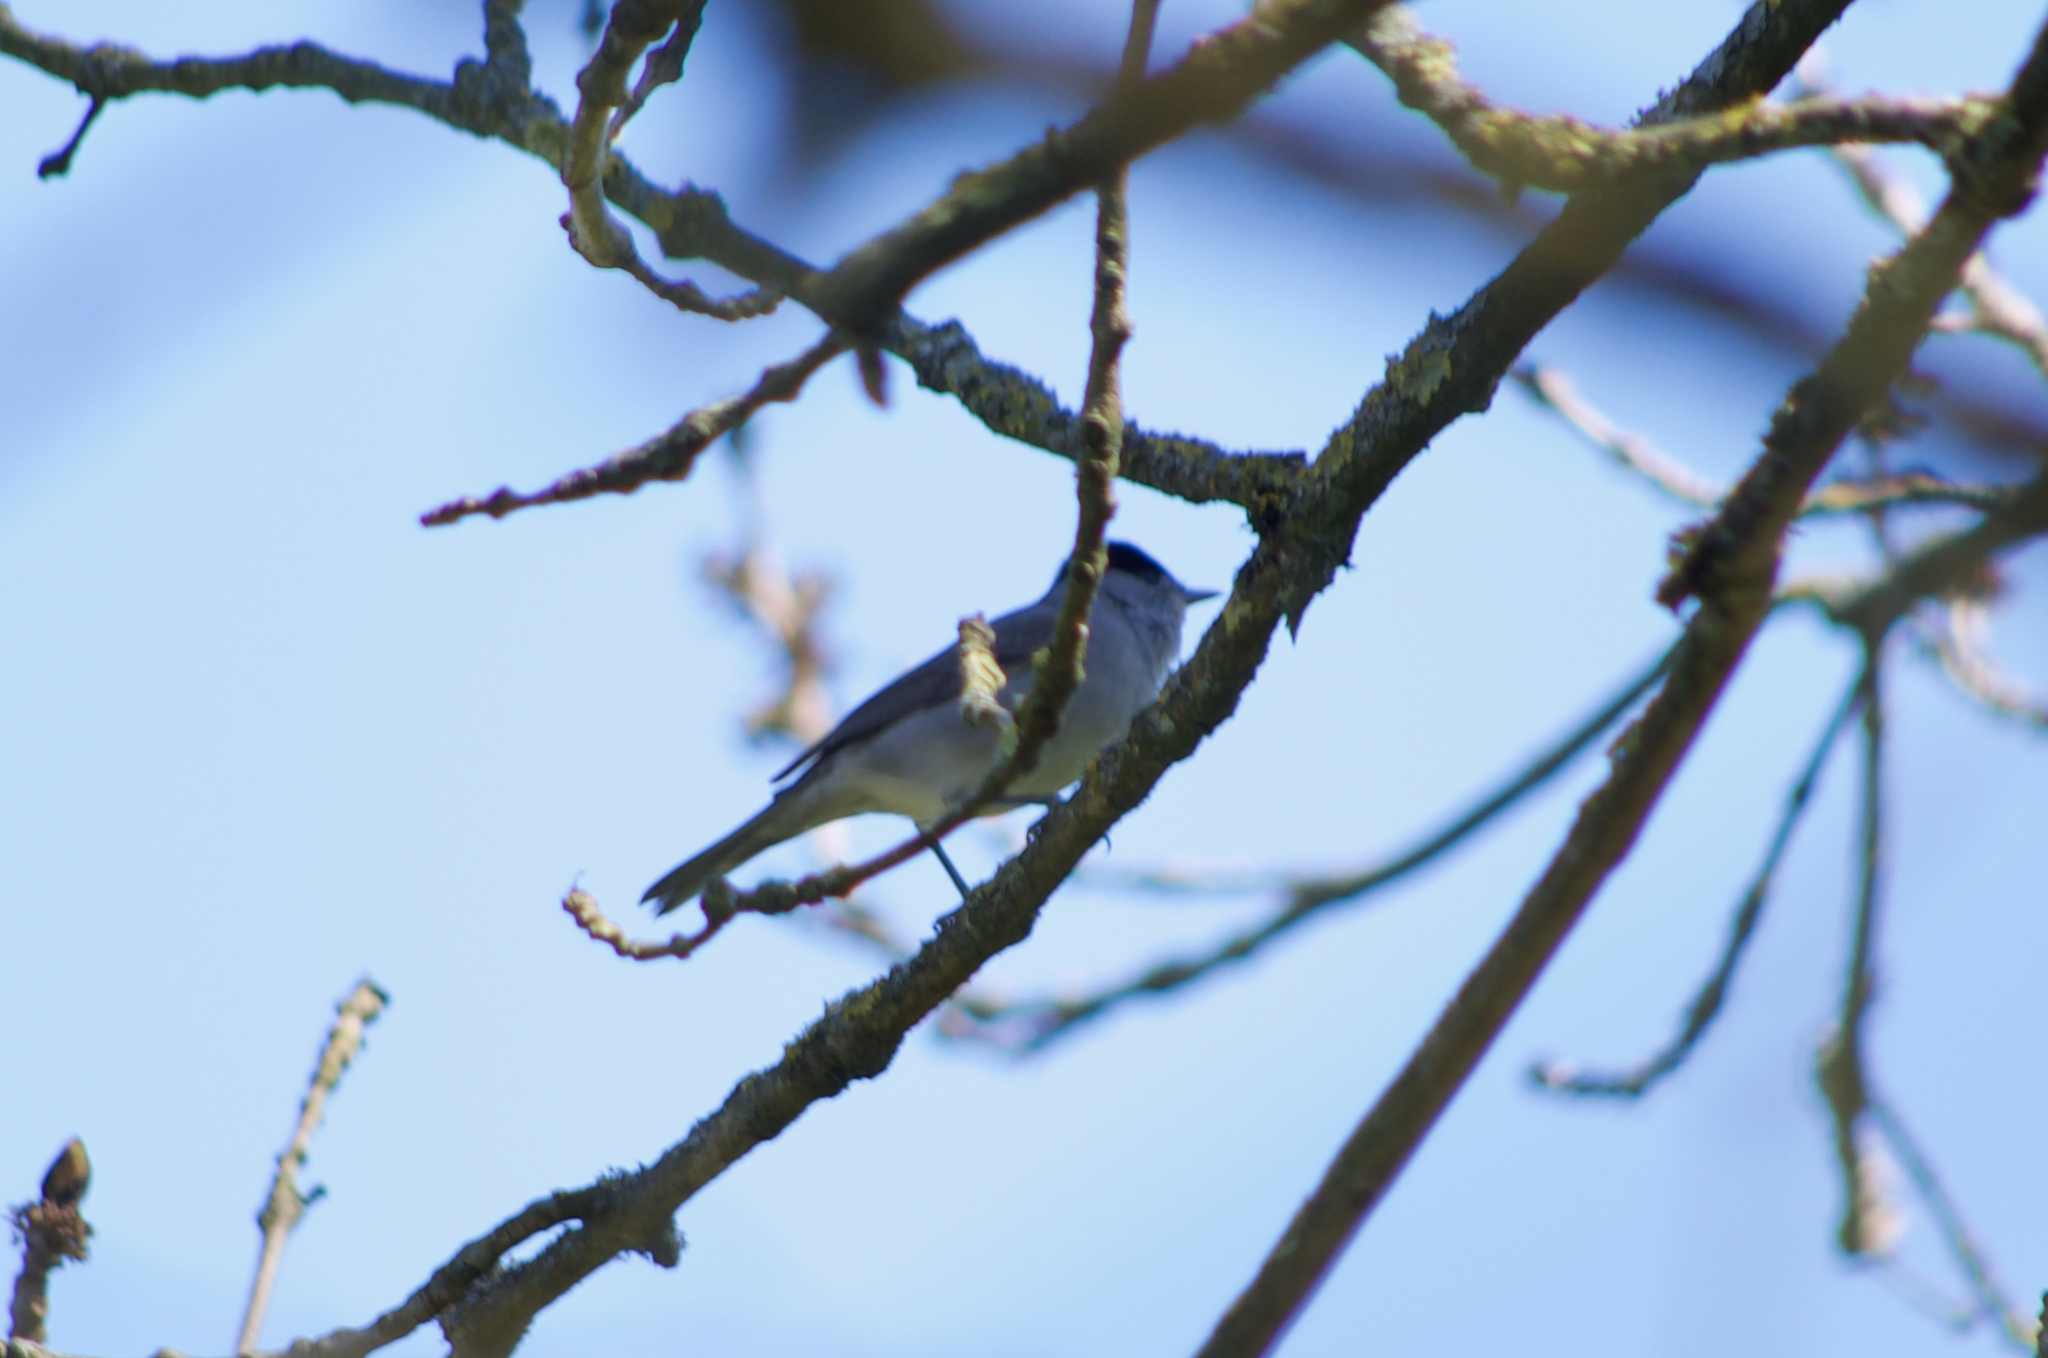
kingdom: Animalia
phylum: Chordata
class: Aves
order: Passeriformes
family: Sylviidae
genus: Sylvia
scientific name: Sylvia atricapilla
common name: Eurasian blackcap
